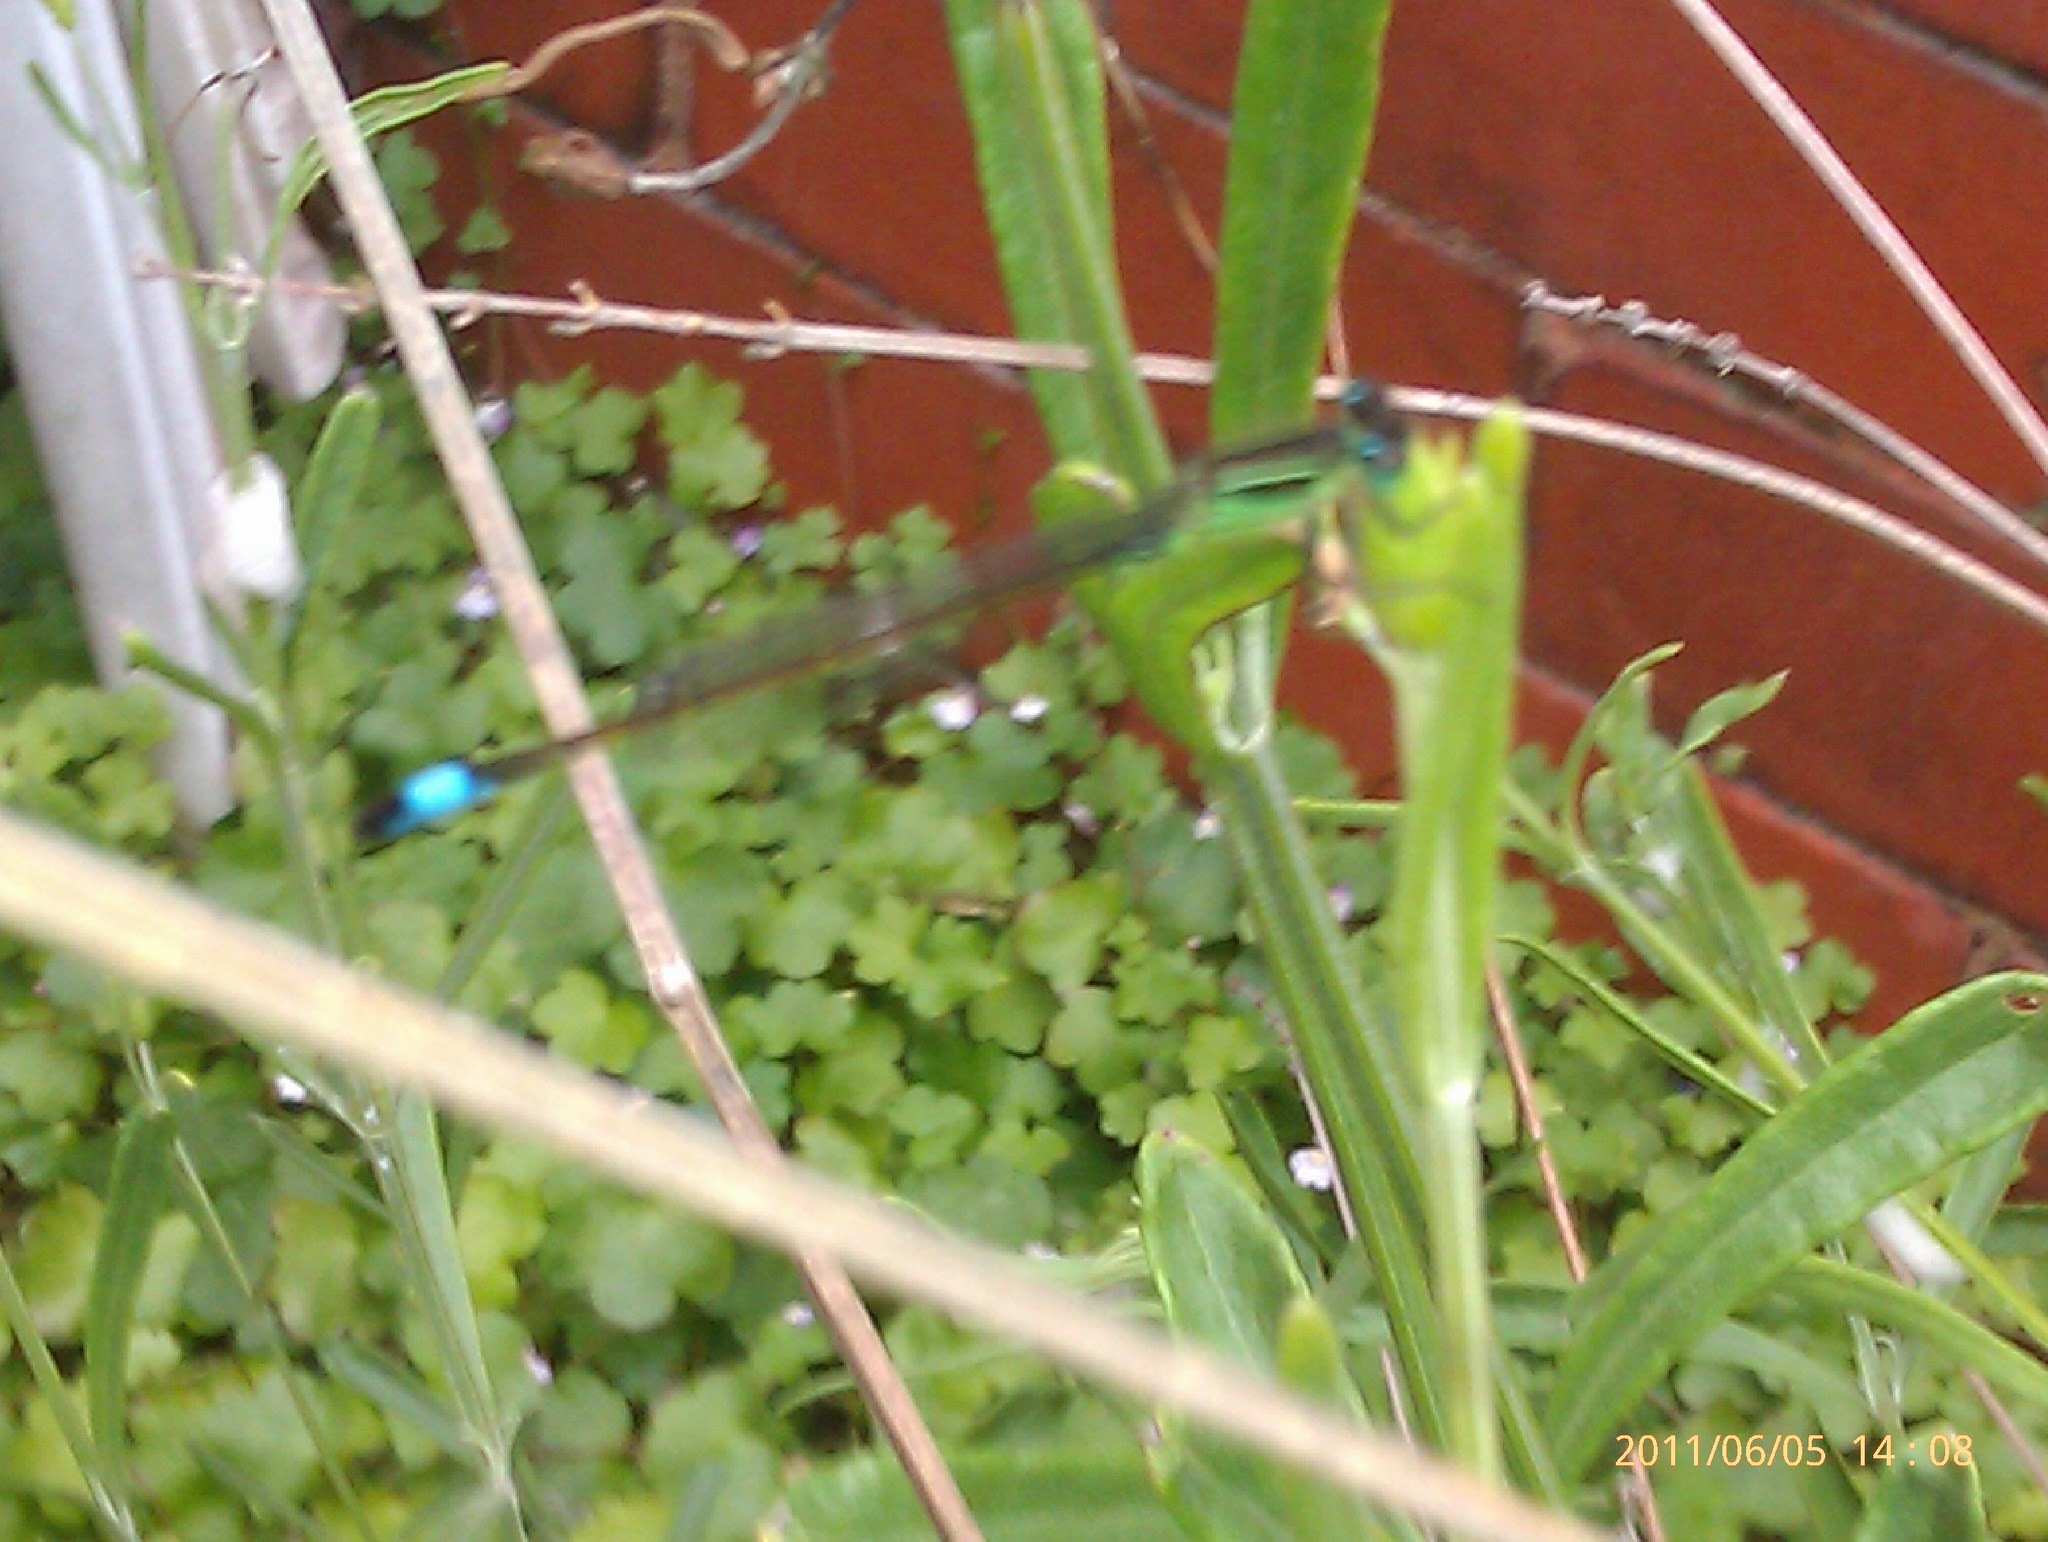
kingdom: Animalia
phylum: Arthropoda
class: Insecta
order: Odonata
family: Coenagrionidae
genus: Ischnura
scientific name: Ischnura elegans
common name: Blue-tailed damselfly
